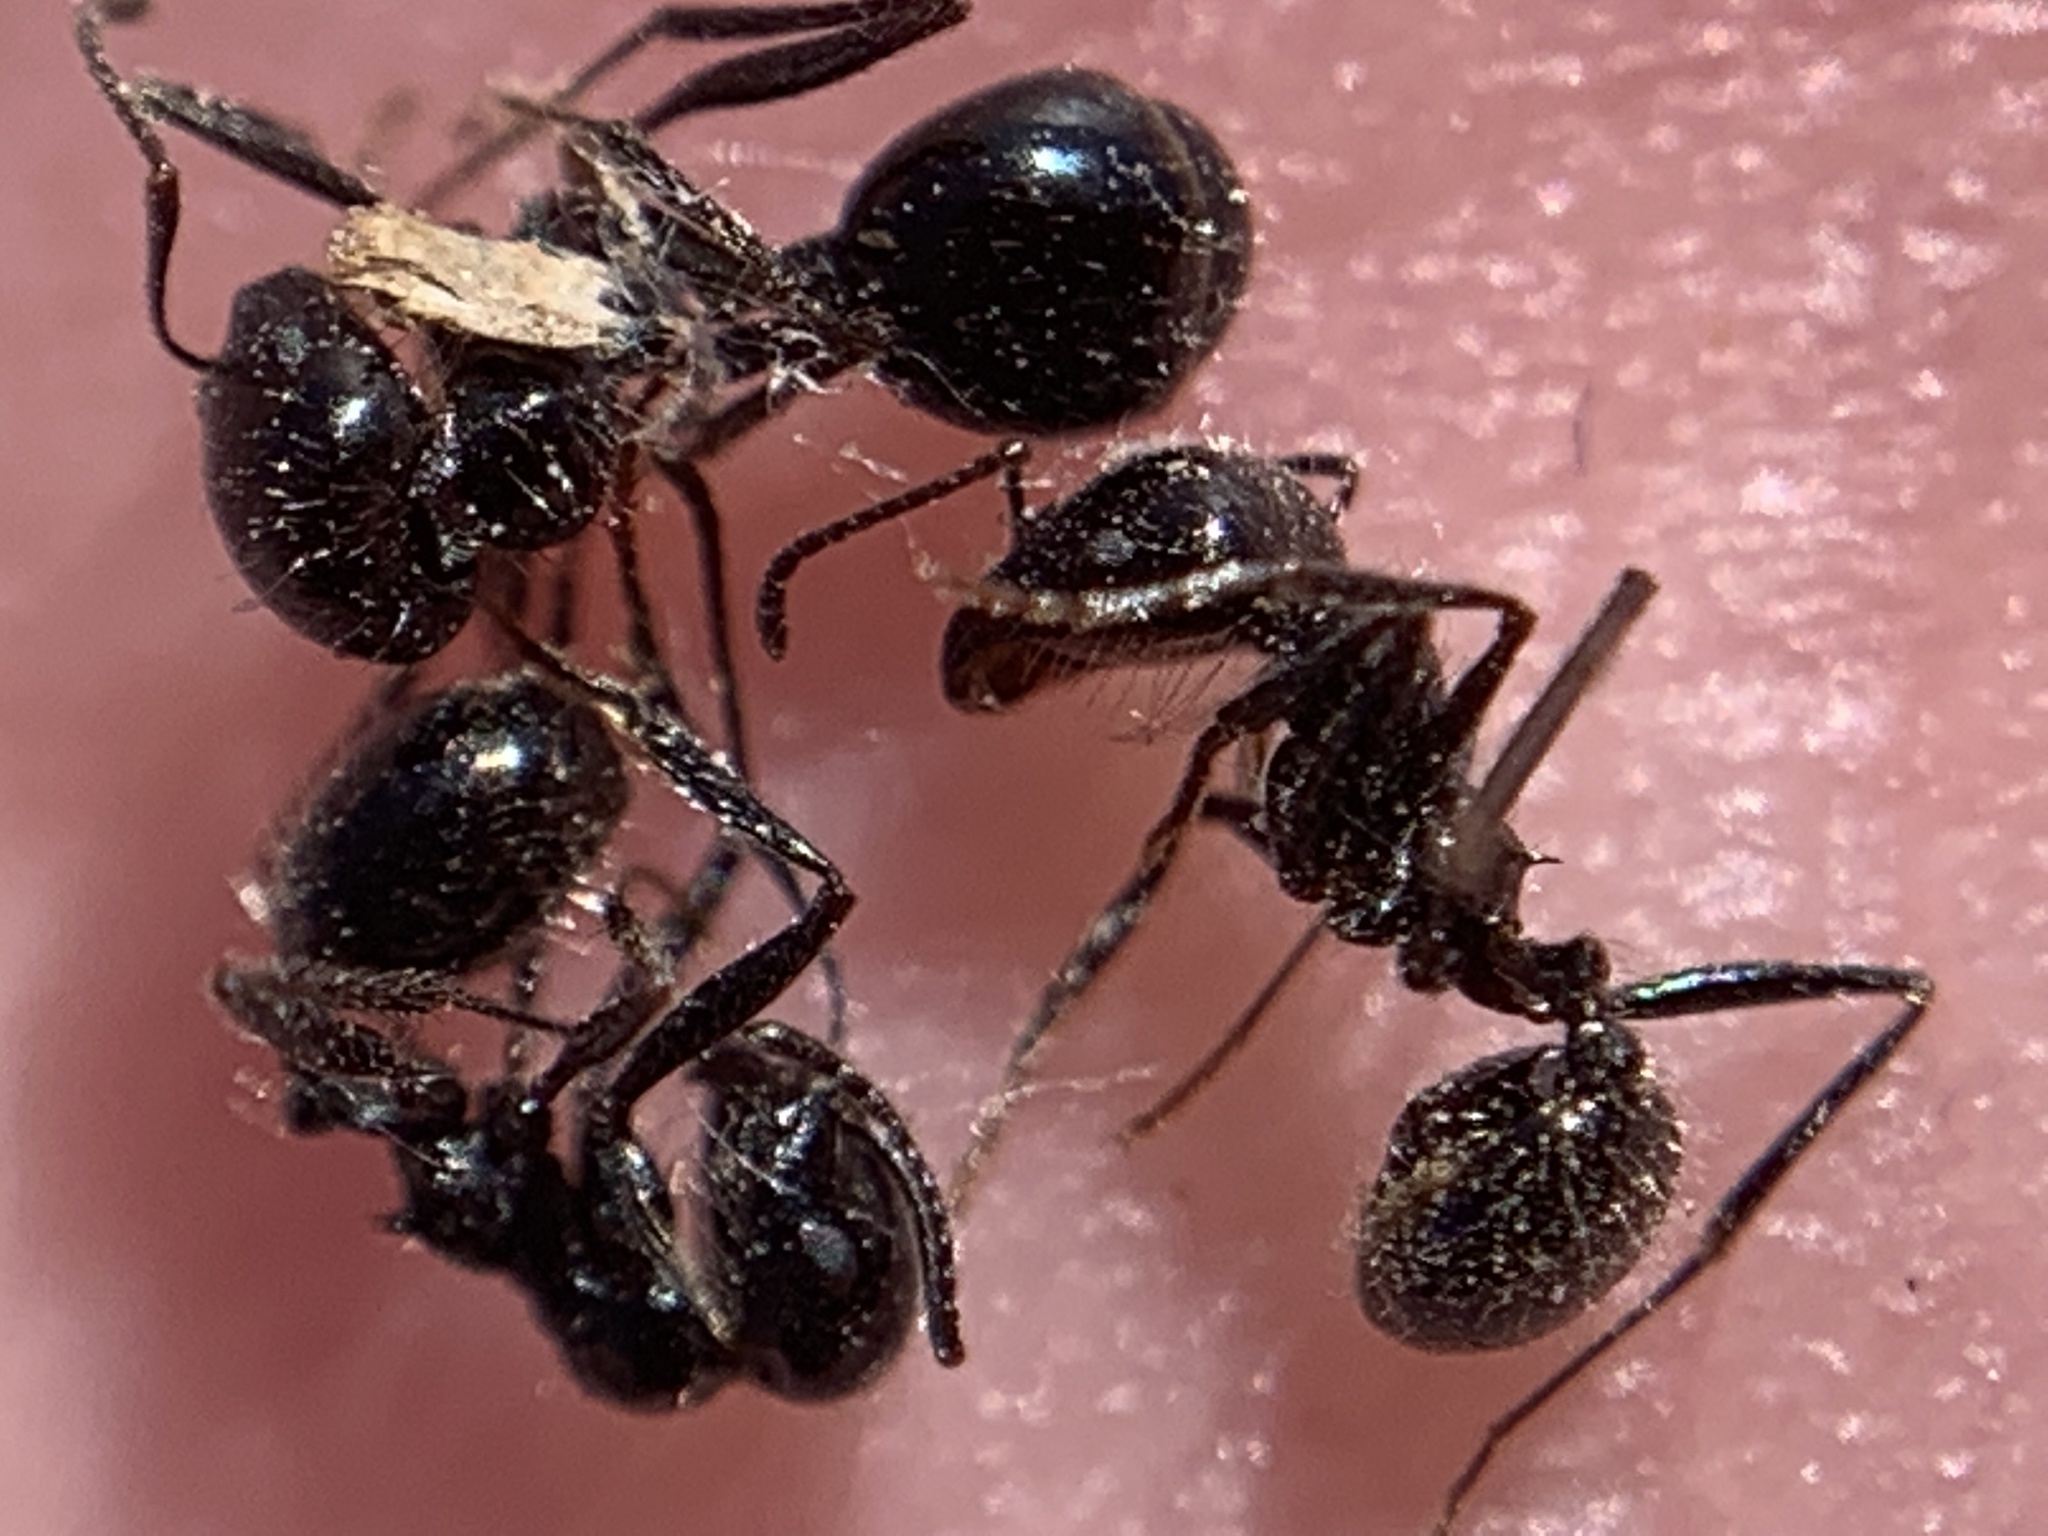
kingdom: Animalia
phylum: Arthropoda
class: Insecta
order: Hymenoptera
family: Formicidae
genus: Messor
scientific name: Messor pergandei
